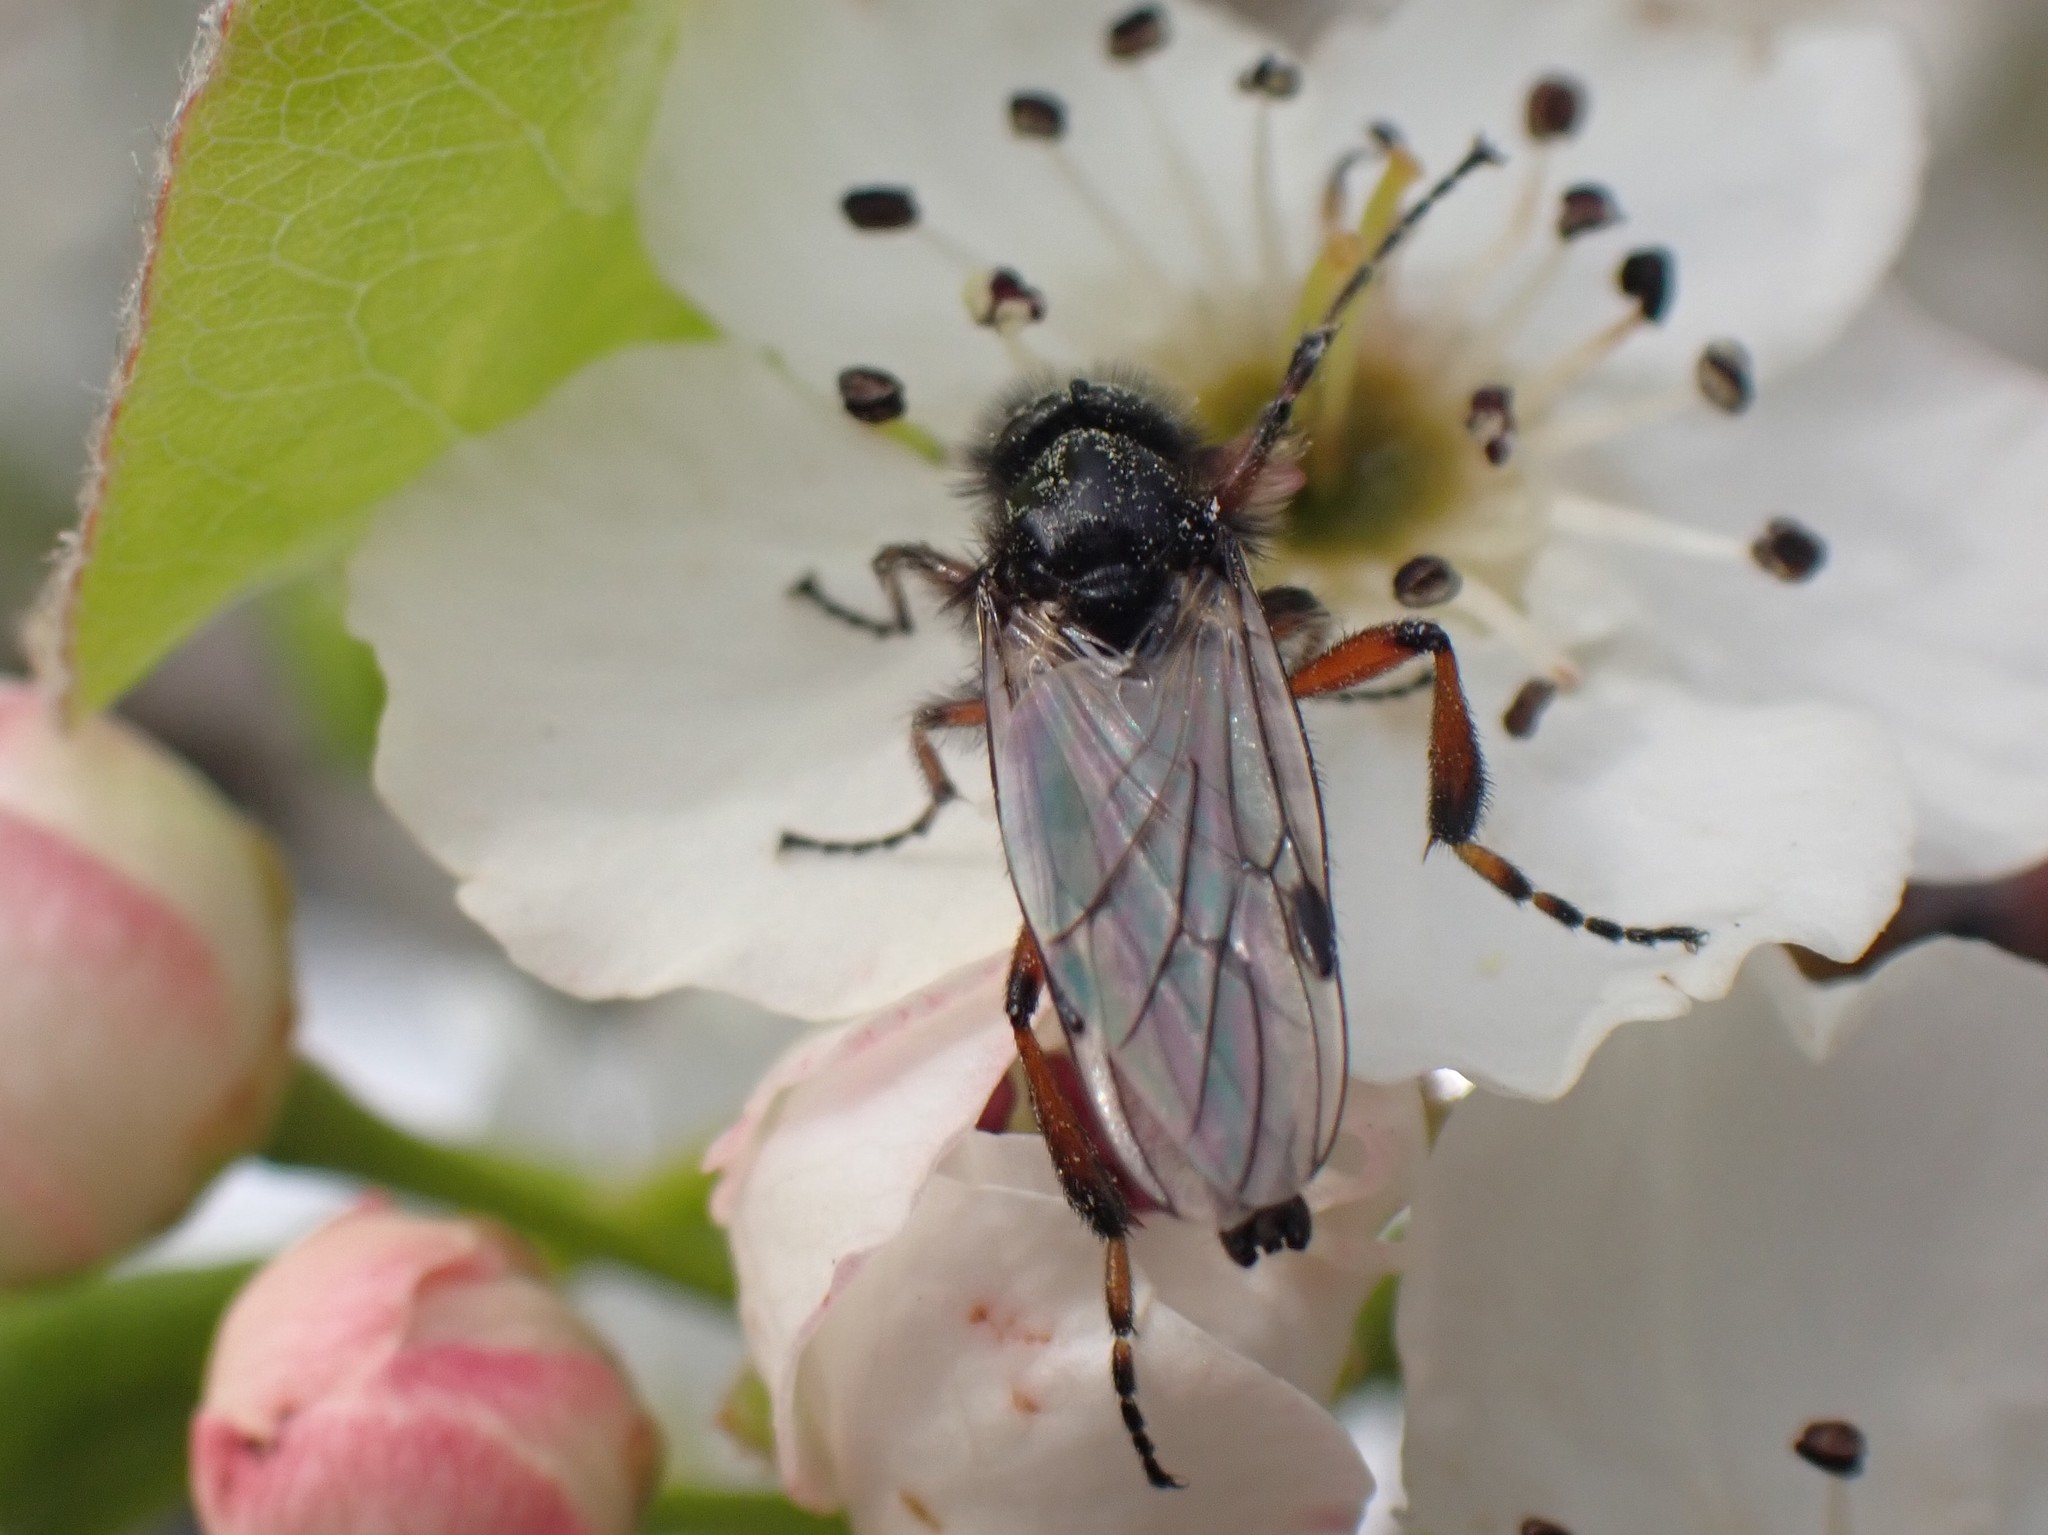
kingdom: Animalia
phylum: Arthropoda
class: Insecta
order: Diptera
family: Bibionidae
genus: Bibio
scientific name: Bibio
